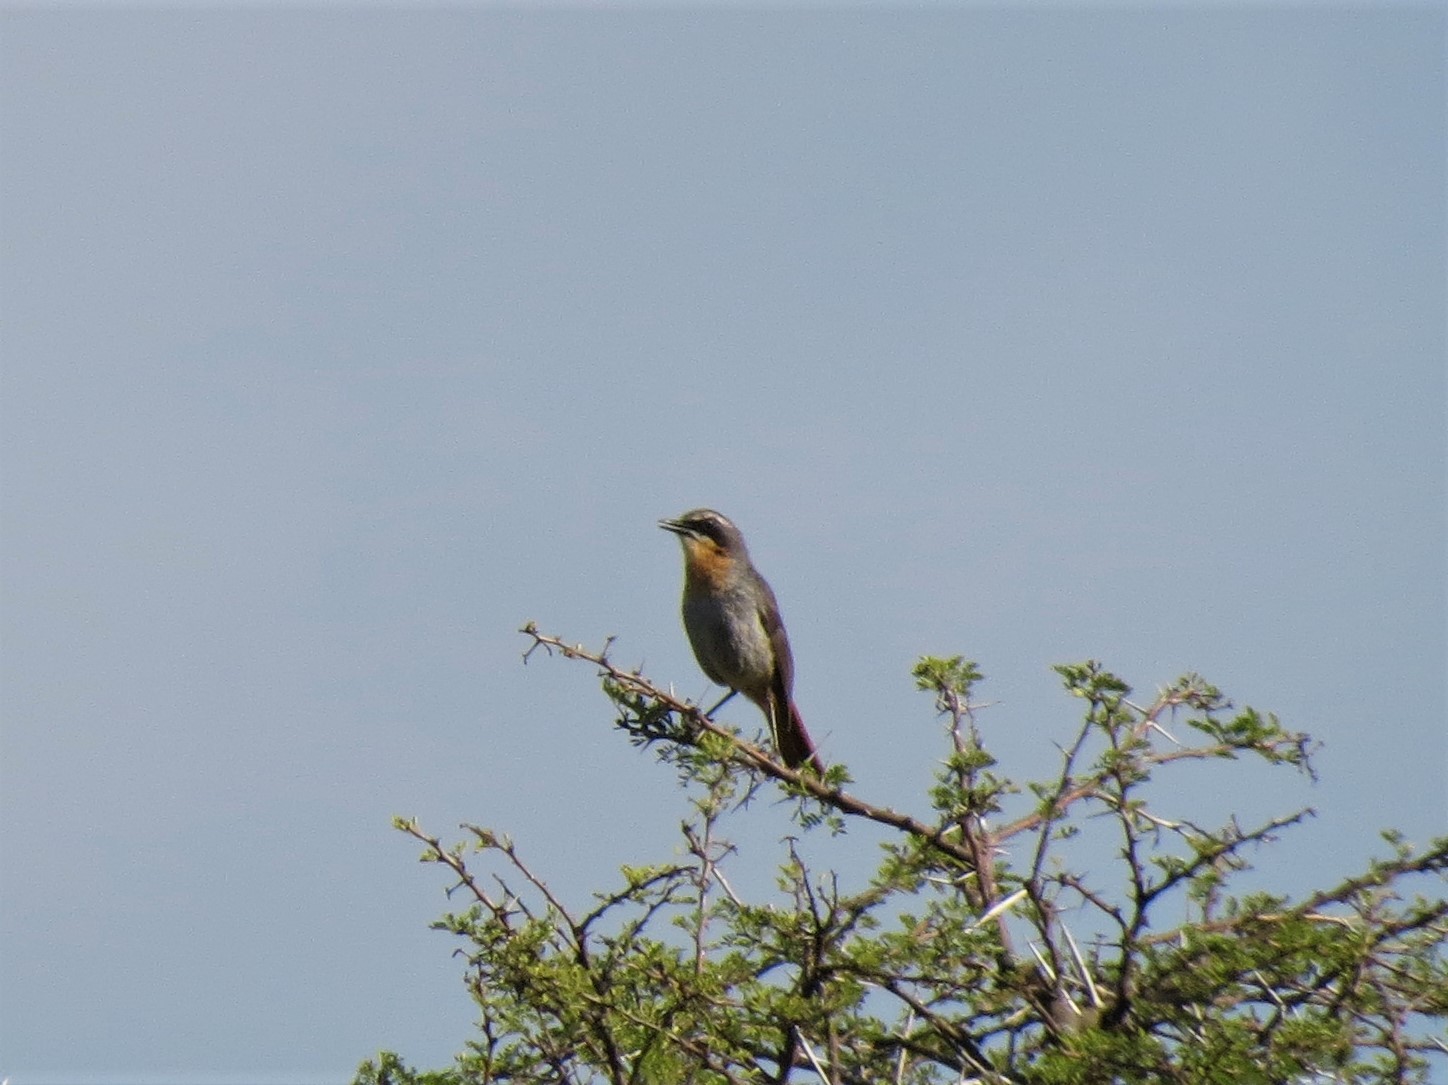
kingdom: Animalia
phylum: Chordata
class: Aves
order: Passeriformes
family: Muscicapidae
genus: Cossypha
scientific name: Cossypha caffra
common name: Cape robin-chat
